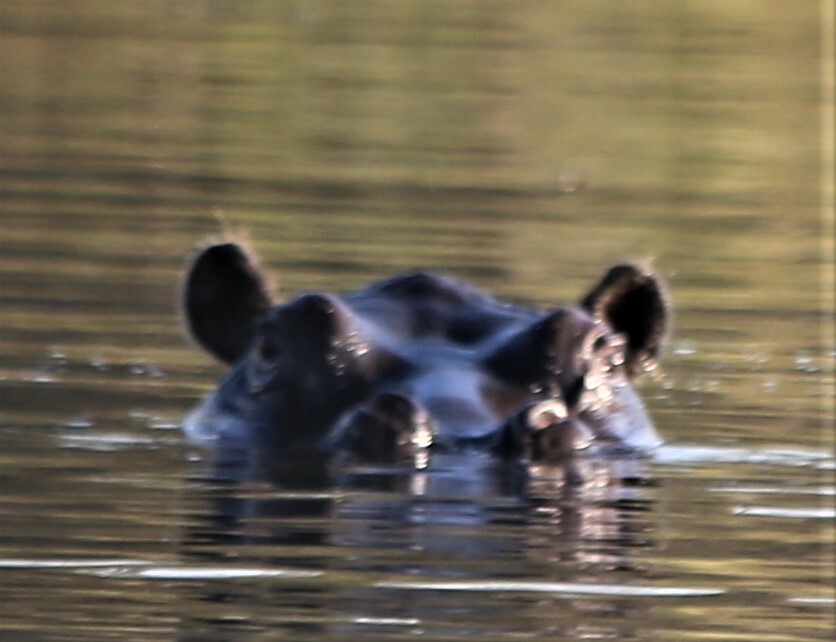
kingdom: Animalia
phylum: Chordata
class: Mammalia
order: Artiodactyla
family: Hippopotamidae
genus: Hippopotamus
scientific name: Hippopotamus amphibius
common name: Common hippopotamus
